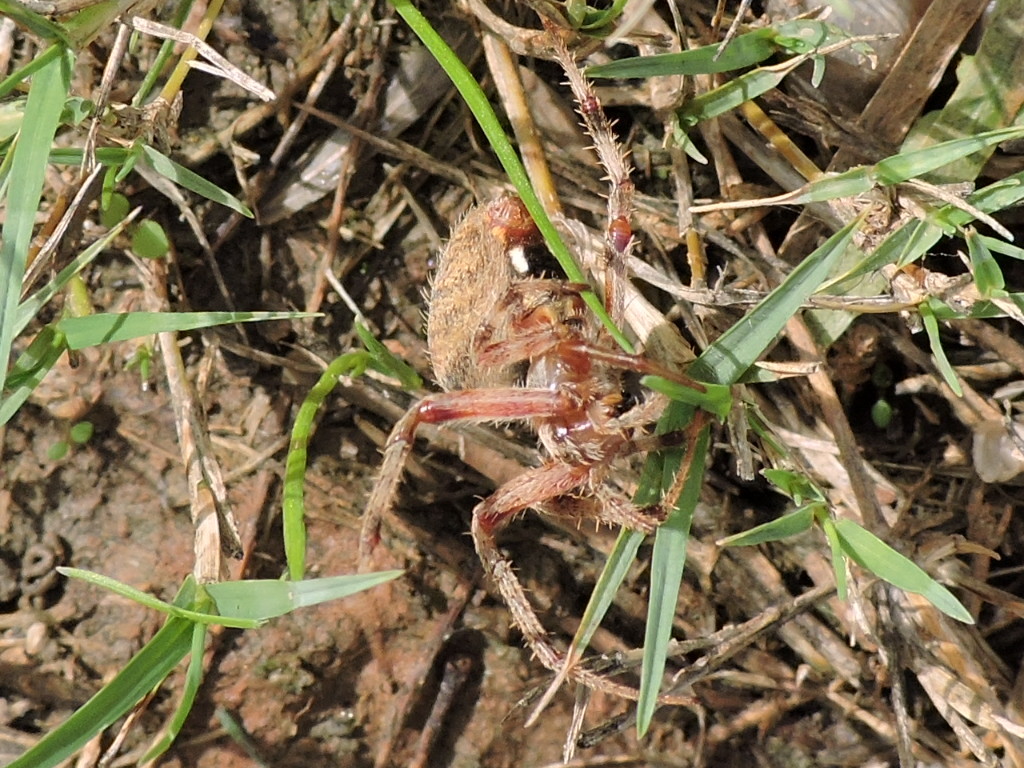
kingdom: Animalia
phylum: Arthropoda
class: Arachnida
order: Araneae
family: Araneidae
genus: Neoscona
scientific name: Neoscona crucifera
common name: Spotted orbweaver
